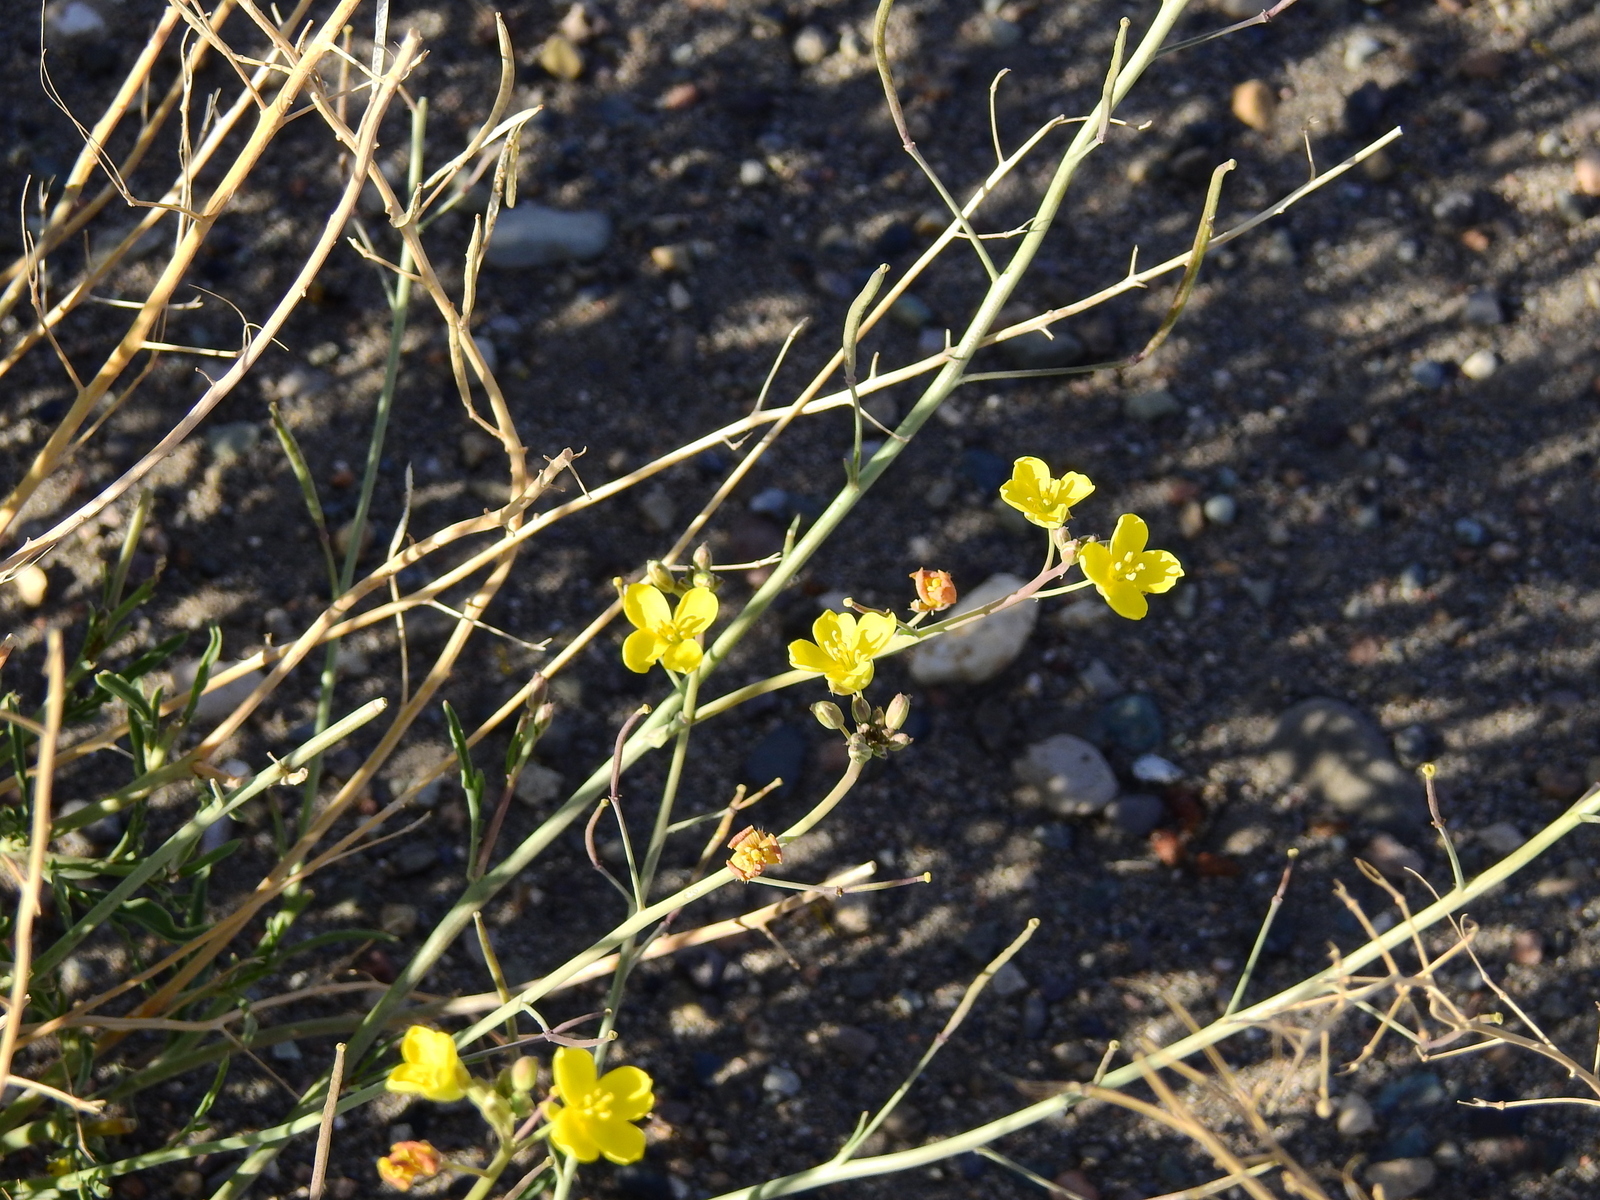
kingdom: Plantae
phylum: Tracheophyta
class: Magnoliopsida
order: Brassicales
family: Brassicaceae
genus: Diplotaxis
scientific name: Diplotaxis tenuifolia
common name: Perennial wall-rocket
